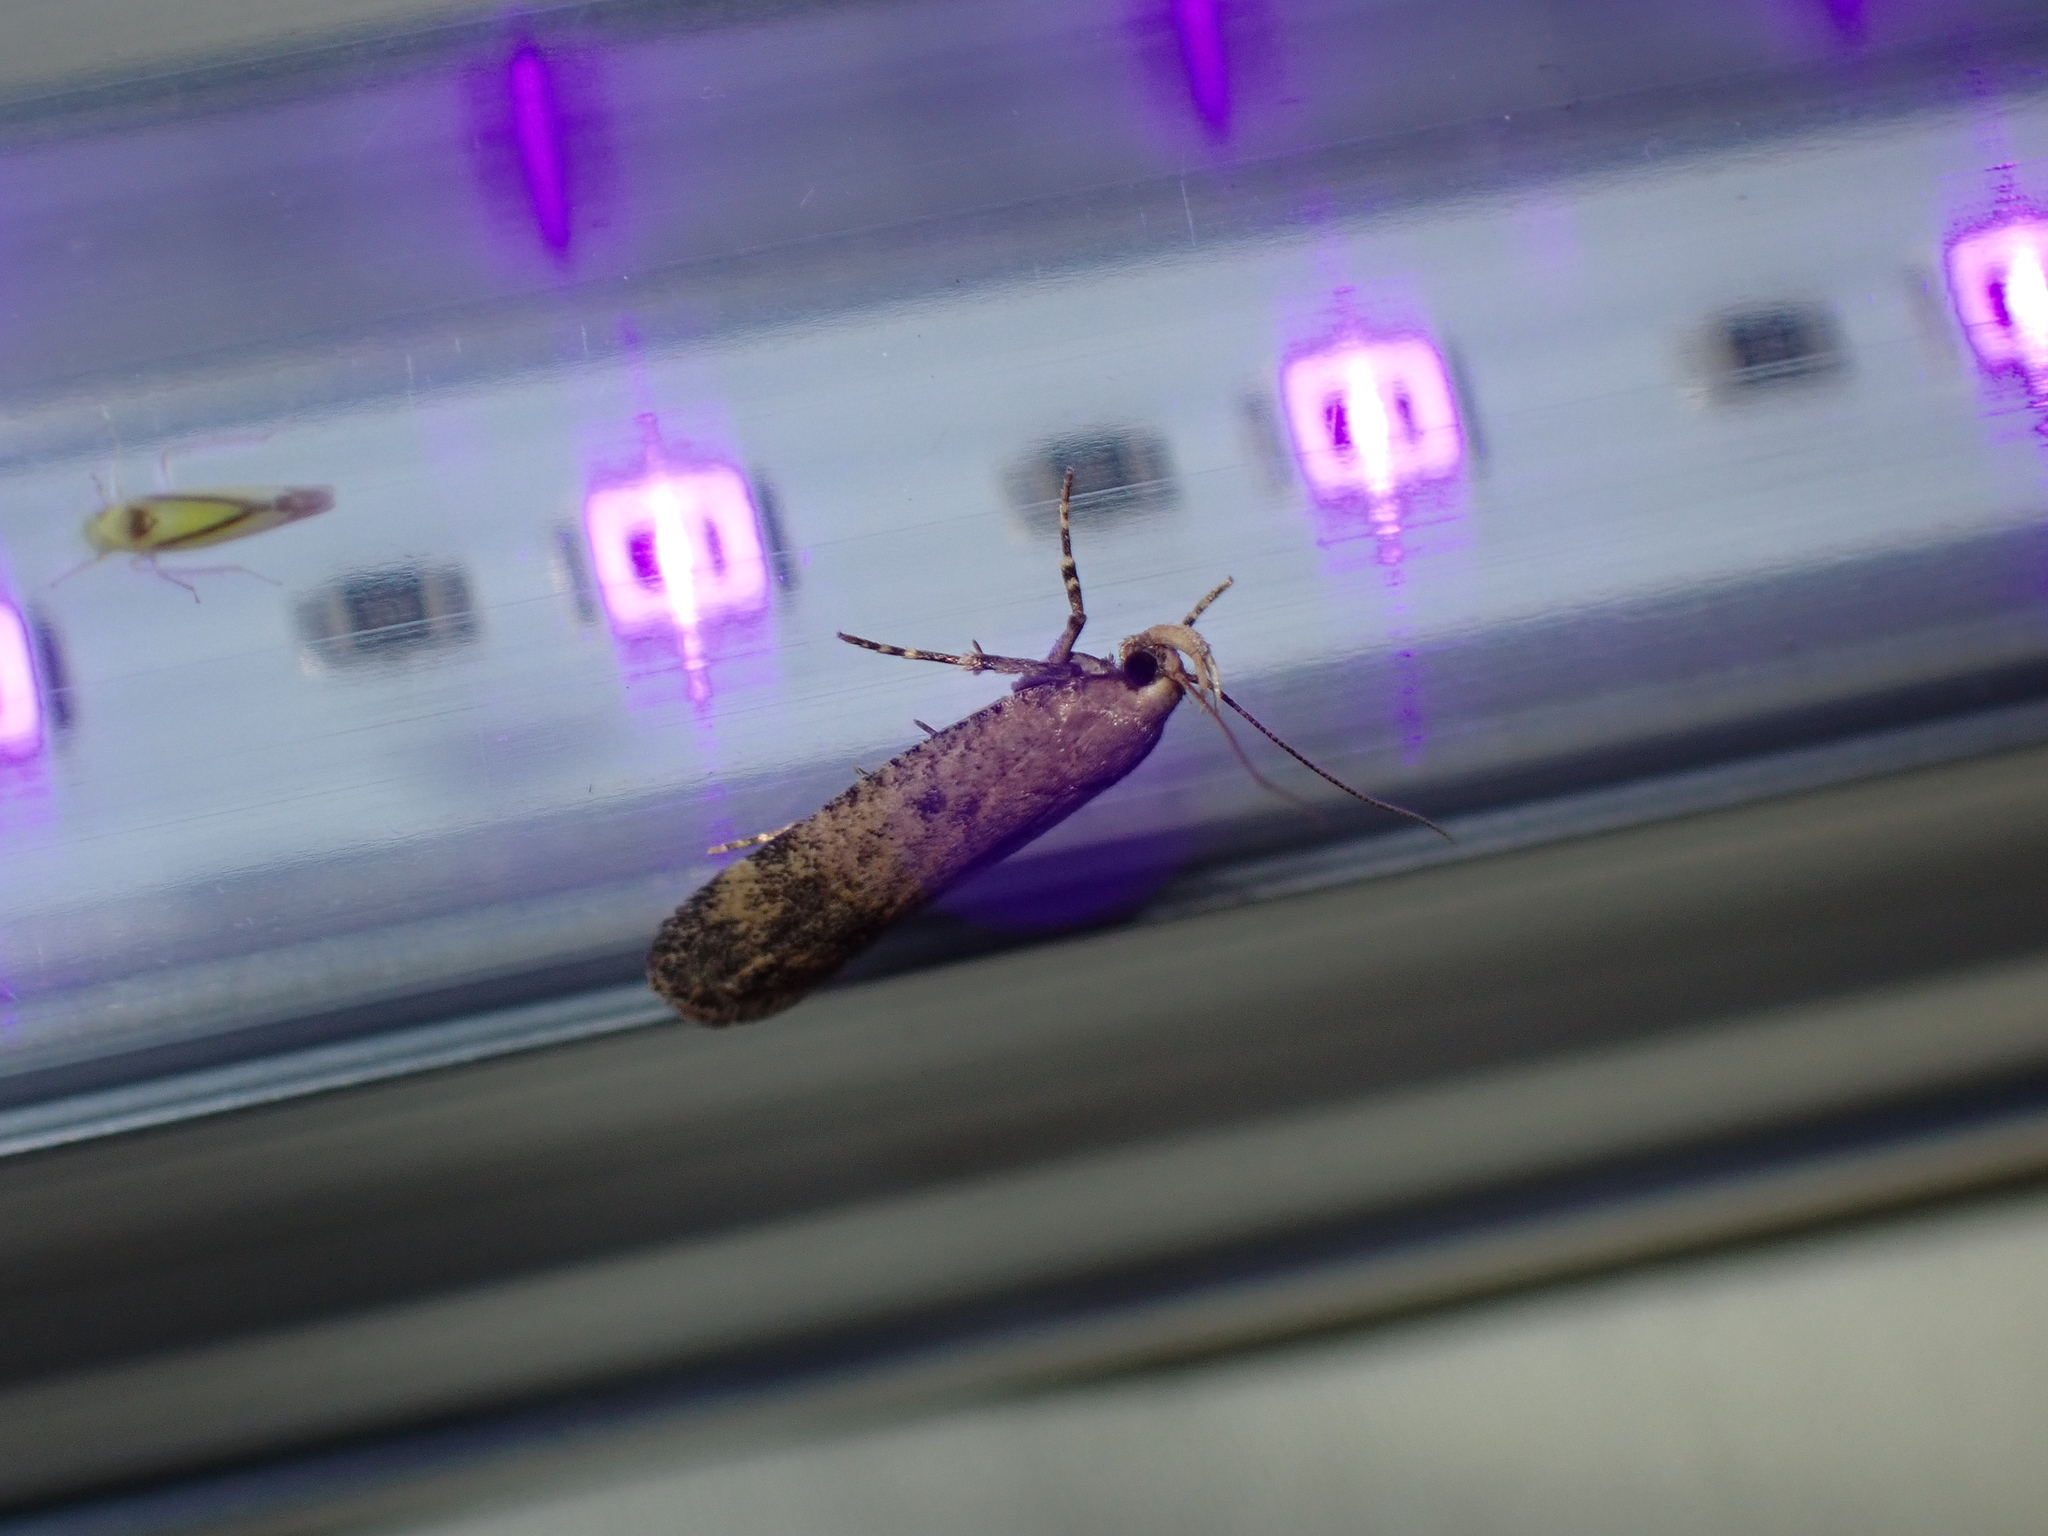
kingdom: Animalia
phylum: Arthropoda
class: Insecta
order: Lepidoptera
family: Gelechiidae
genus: Pexicopia
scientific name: Pexicopia malvella
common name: Hollyhock seed moth
